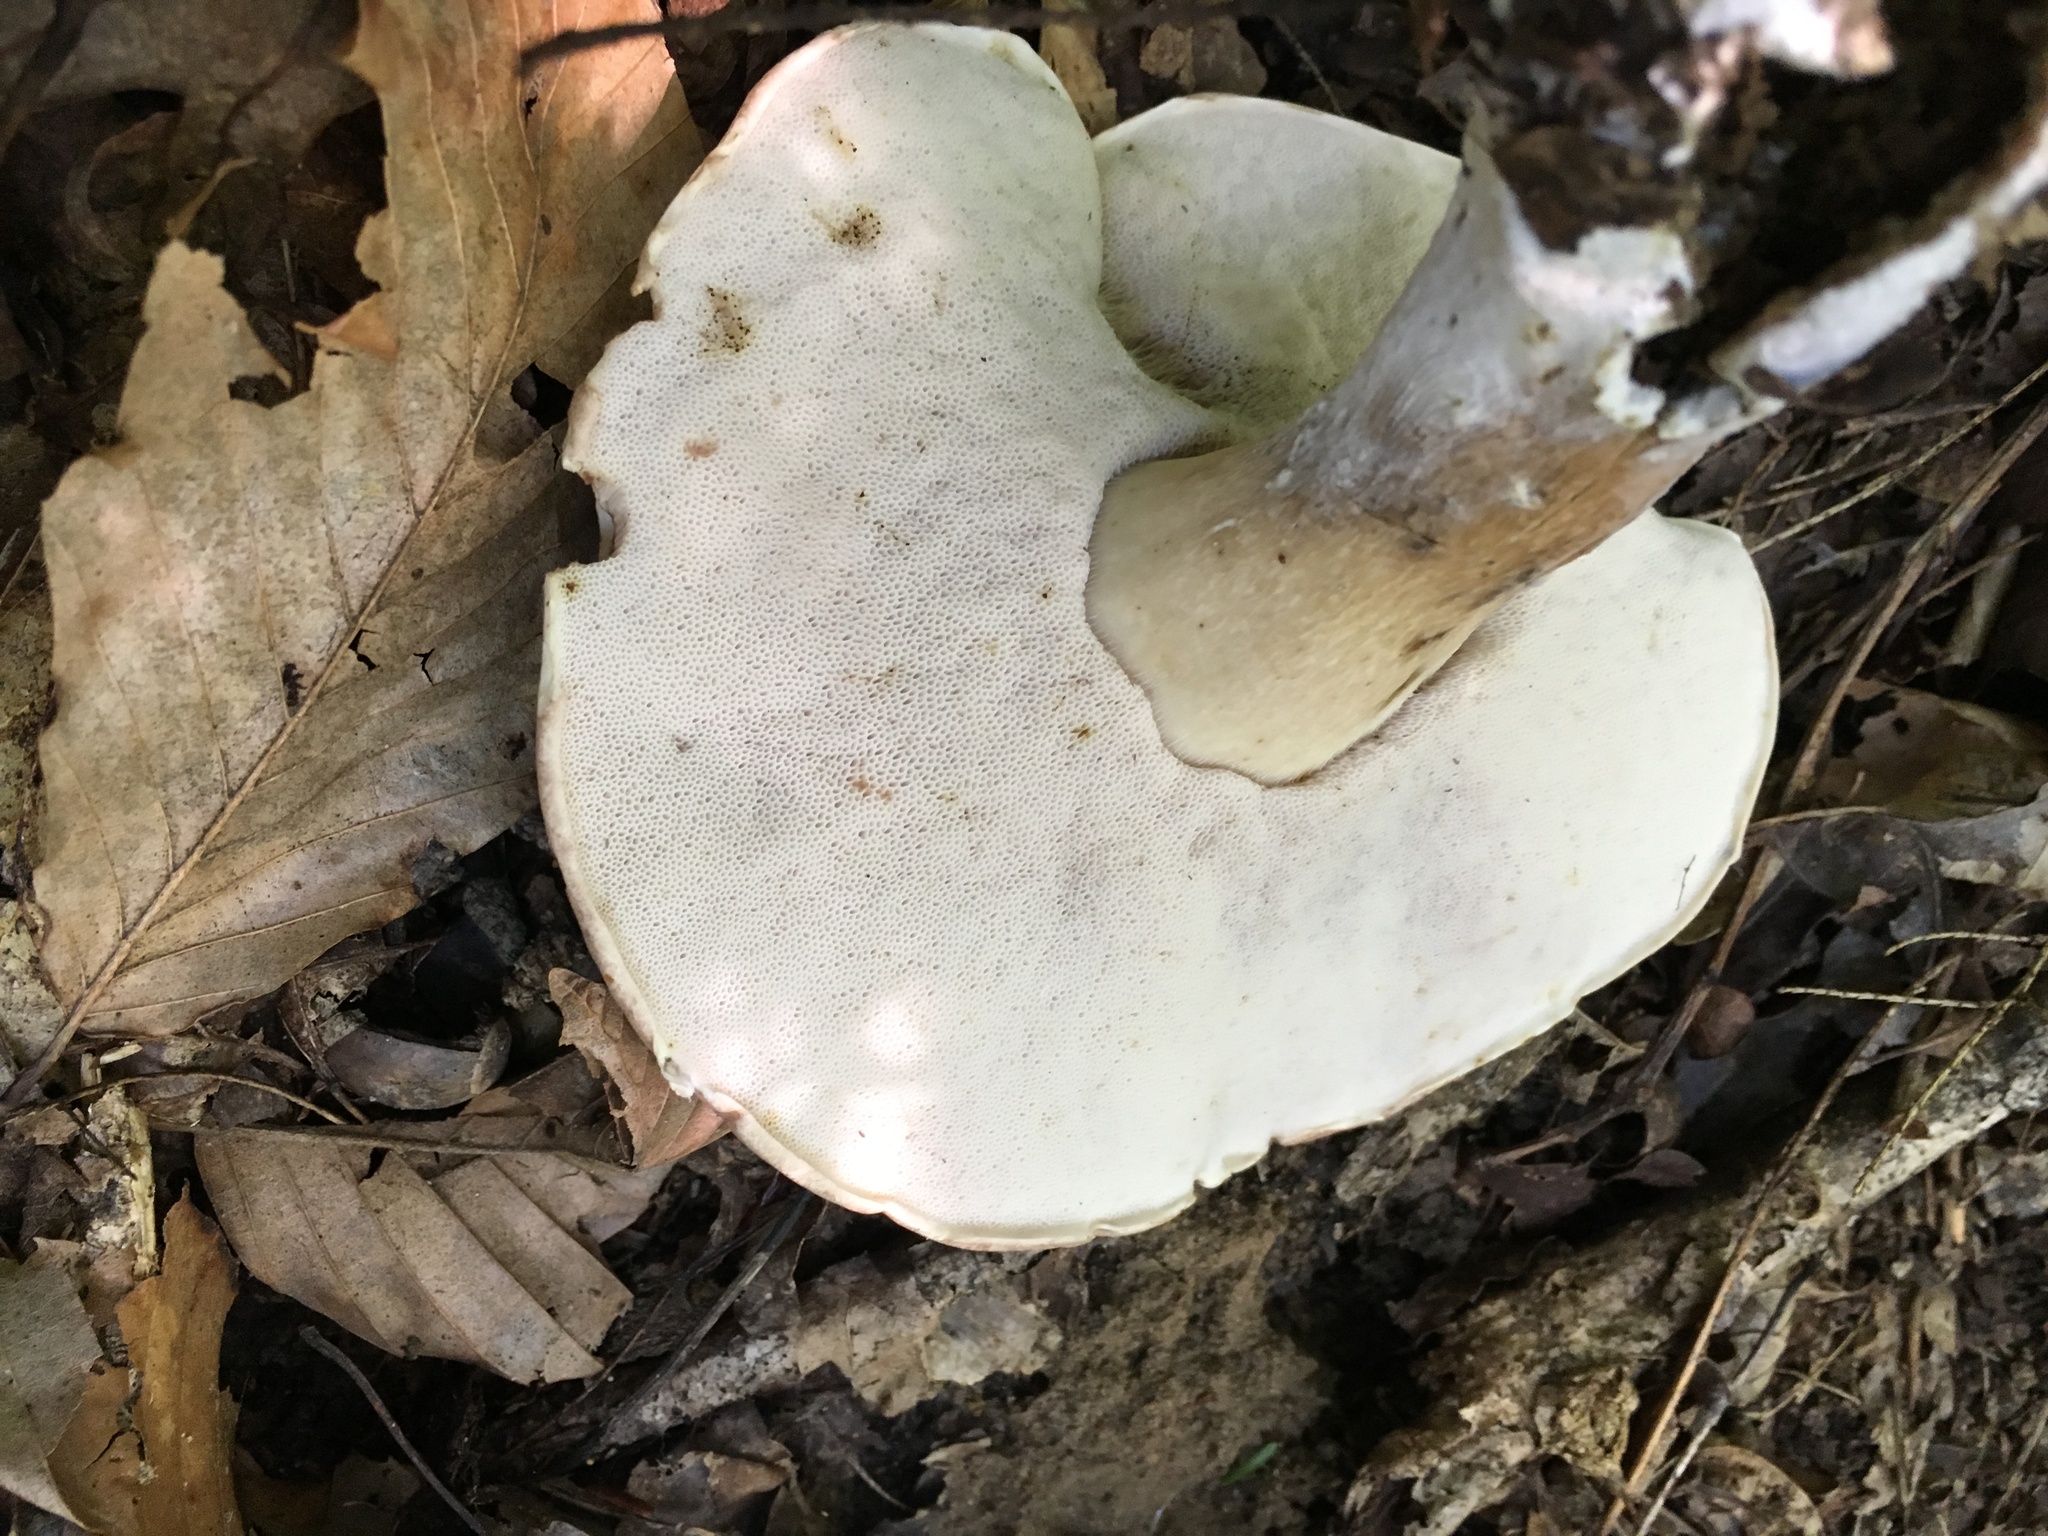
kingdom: Fungi
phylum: Basidiomycota
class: Agaricomycetes
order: Boletales
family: Boletaceae
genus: Tylopilus
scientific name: Tylopilus rubrobrunneus
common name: Reddish brown bitter bolete
